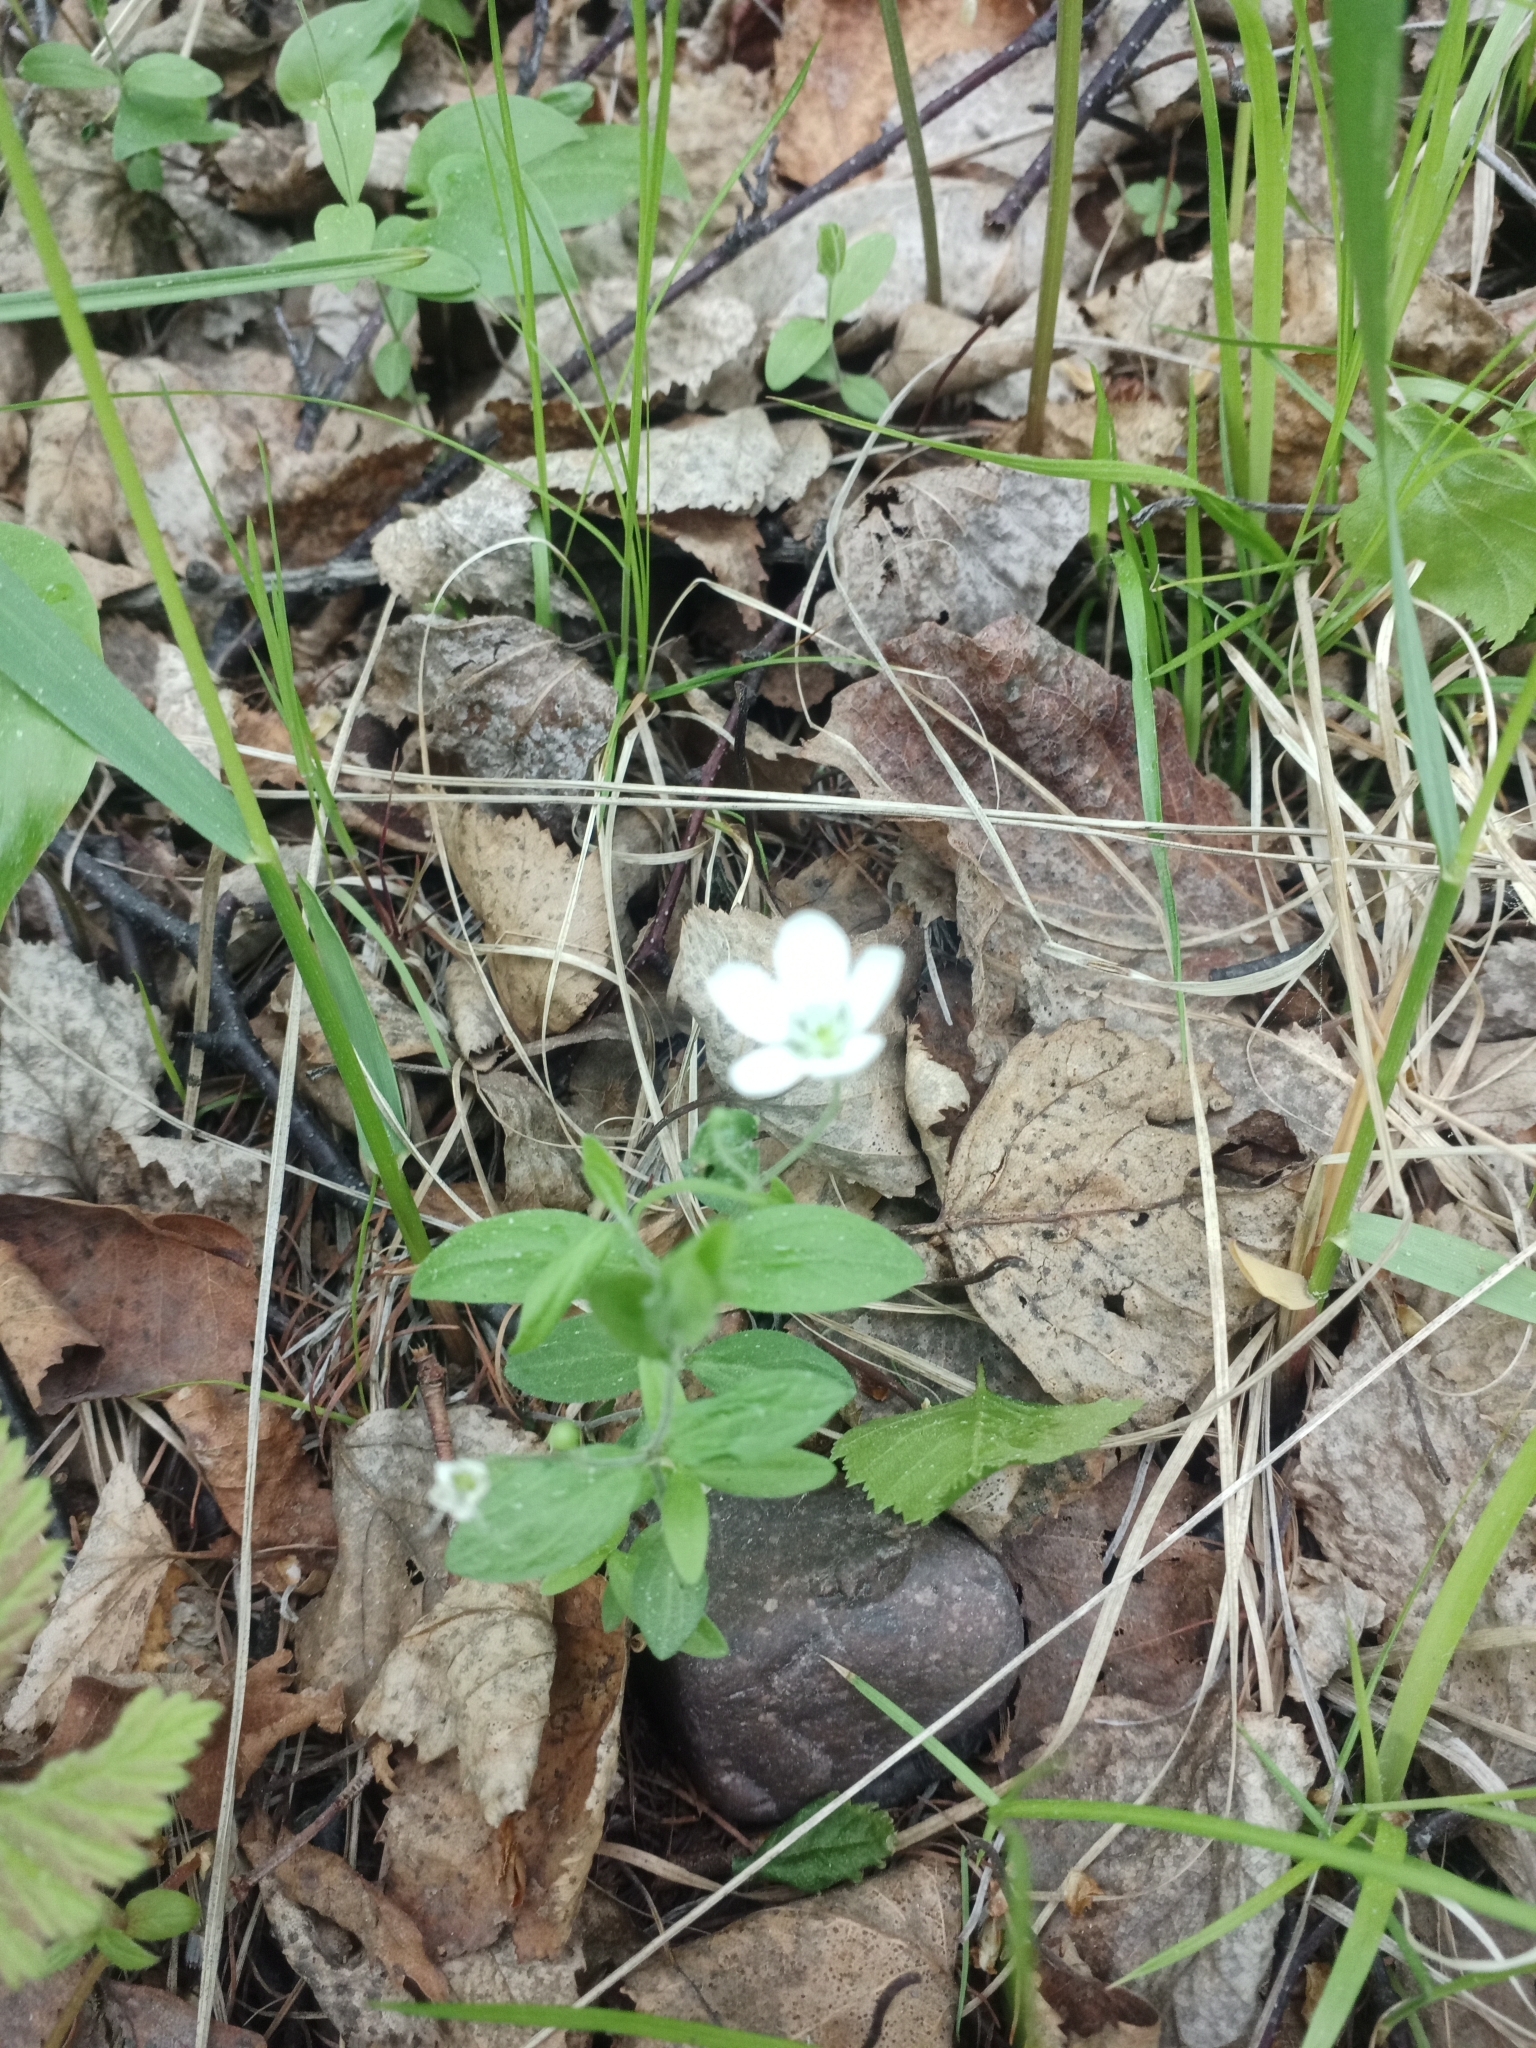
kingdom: Plantae
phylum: Tracheophyta
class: Magnoliopsida
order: Caryophyllales
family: Caryophyllaceae
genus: Moehringia
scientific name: Moehringia lateriflora
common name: Blunt-leaved sandwort
